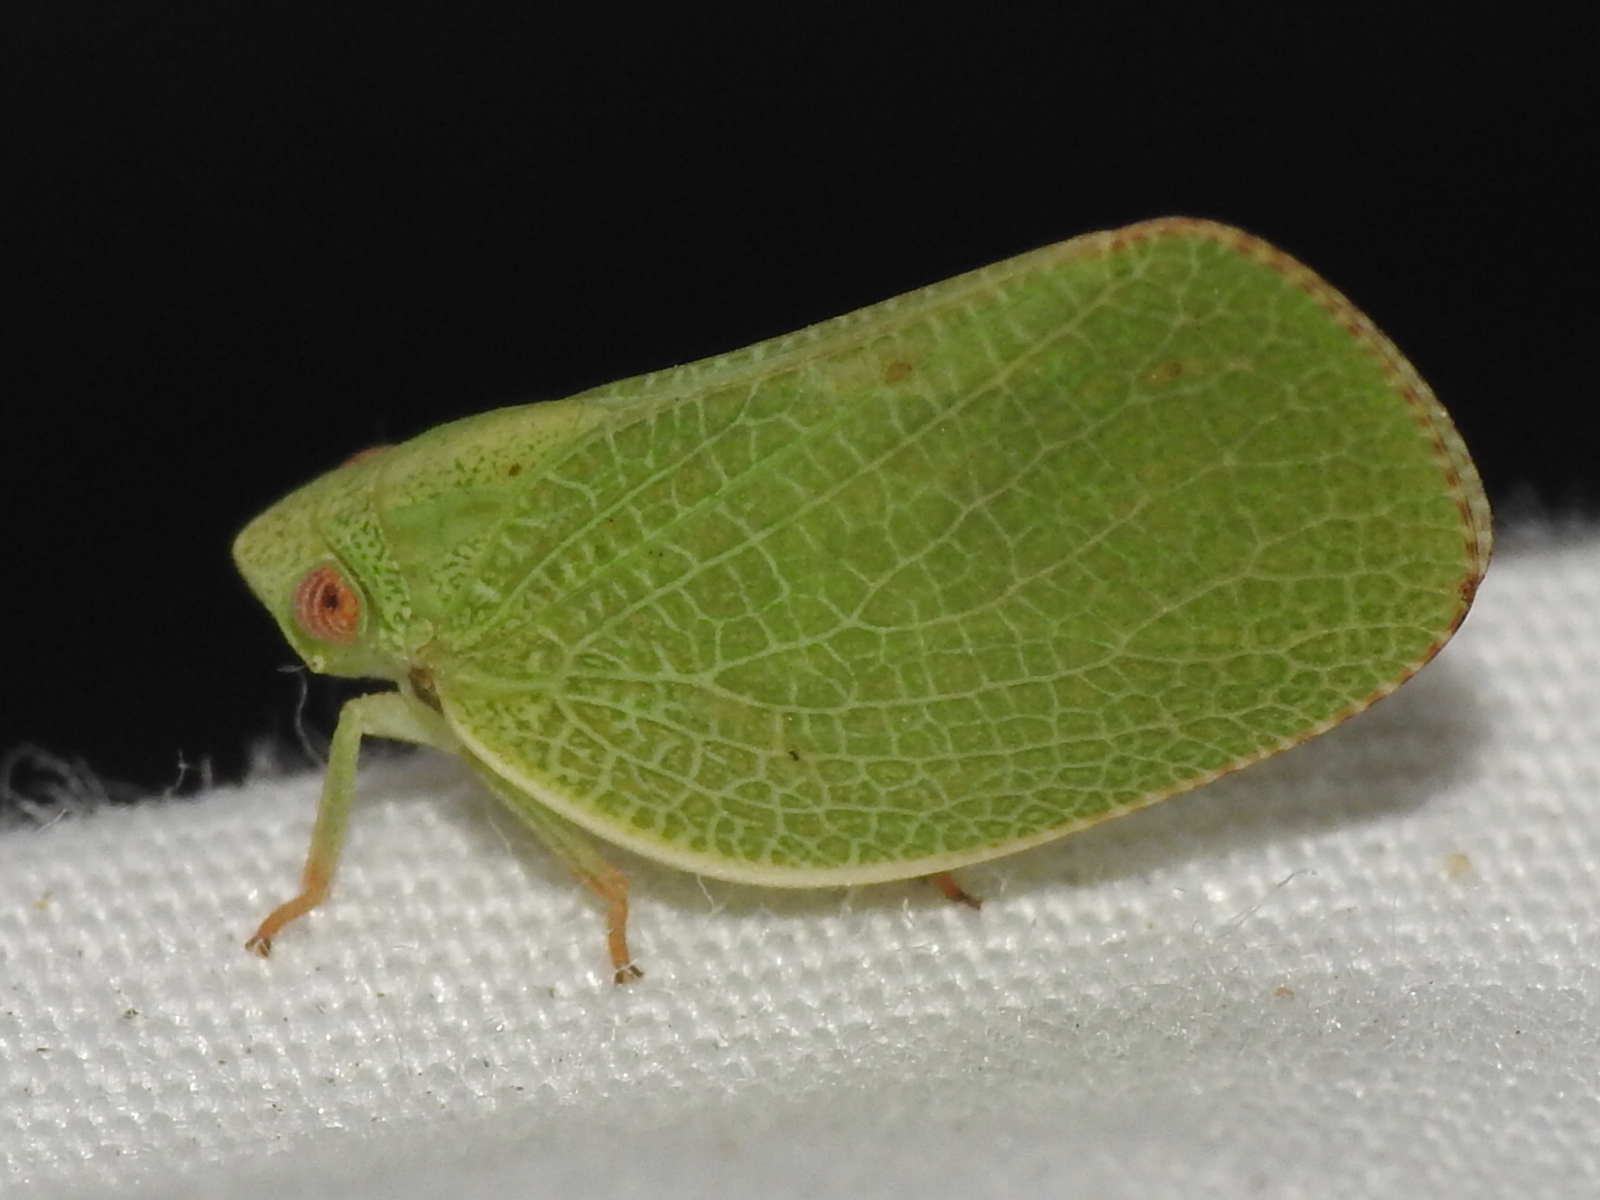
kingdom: Animalia
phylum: Arthropoda
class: Insecta
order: Hemiptera
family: Acanaloniidae
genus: Acanalonia
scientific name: Acanalonia conica
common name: Green cone-headed planthopper
